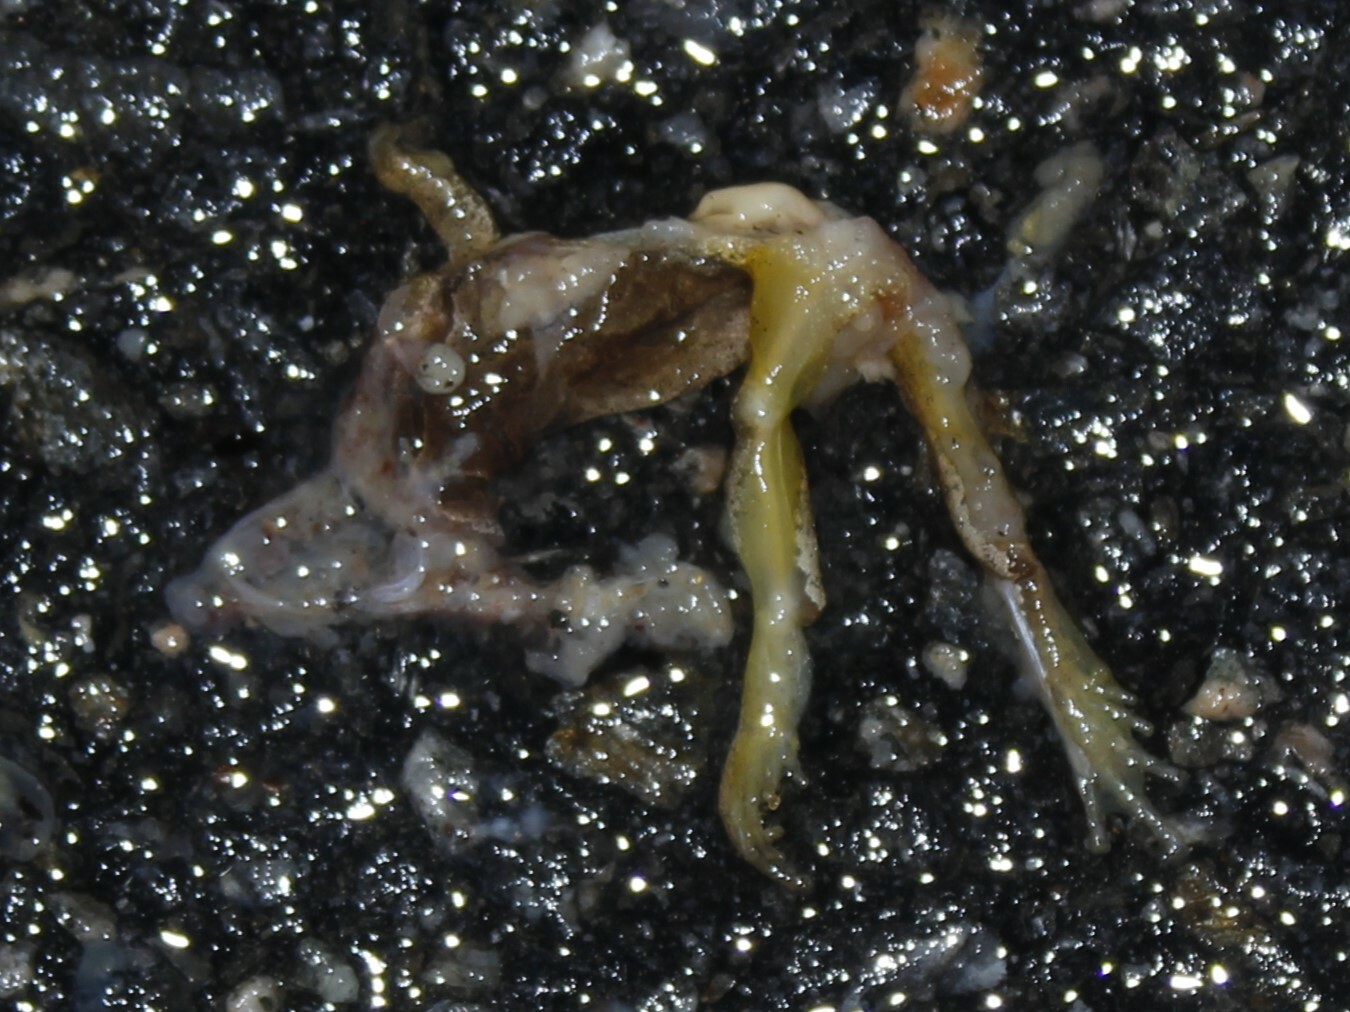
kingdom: Animalia
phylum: Chordata
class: Amphibia
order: Anura
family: Hylidae
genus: Pseudacris
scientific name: Pseudacris crucifer
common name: Spring peeper
